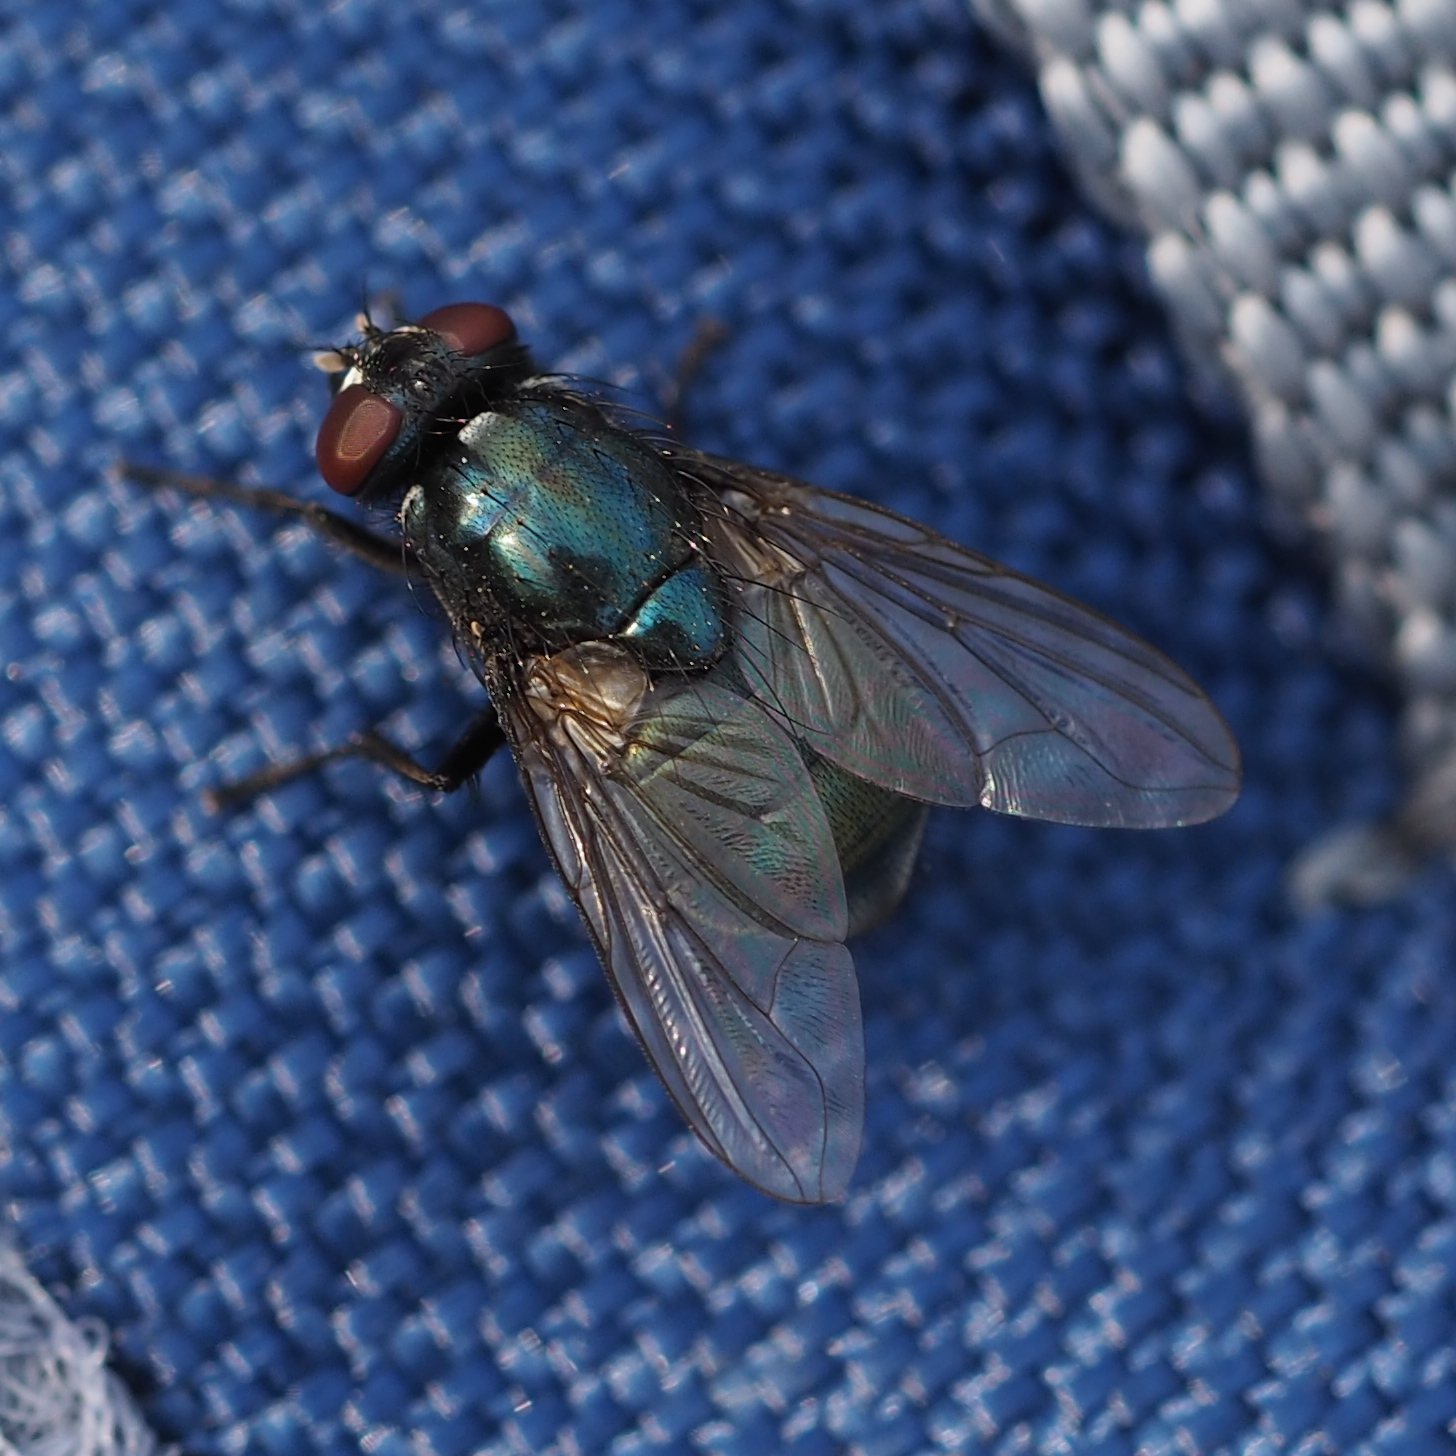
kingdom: Animalia
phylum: Arthropoda
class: Insecta
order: Diptera
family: Muscidae
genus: Eudasyphora
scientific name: Eudasyphora cyanicolor
